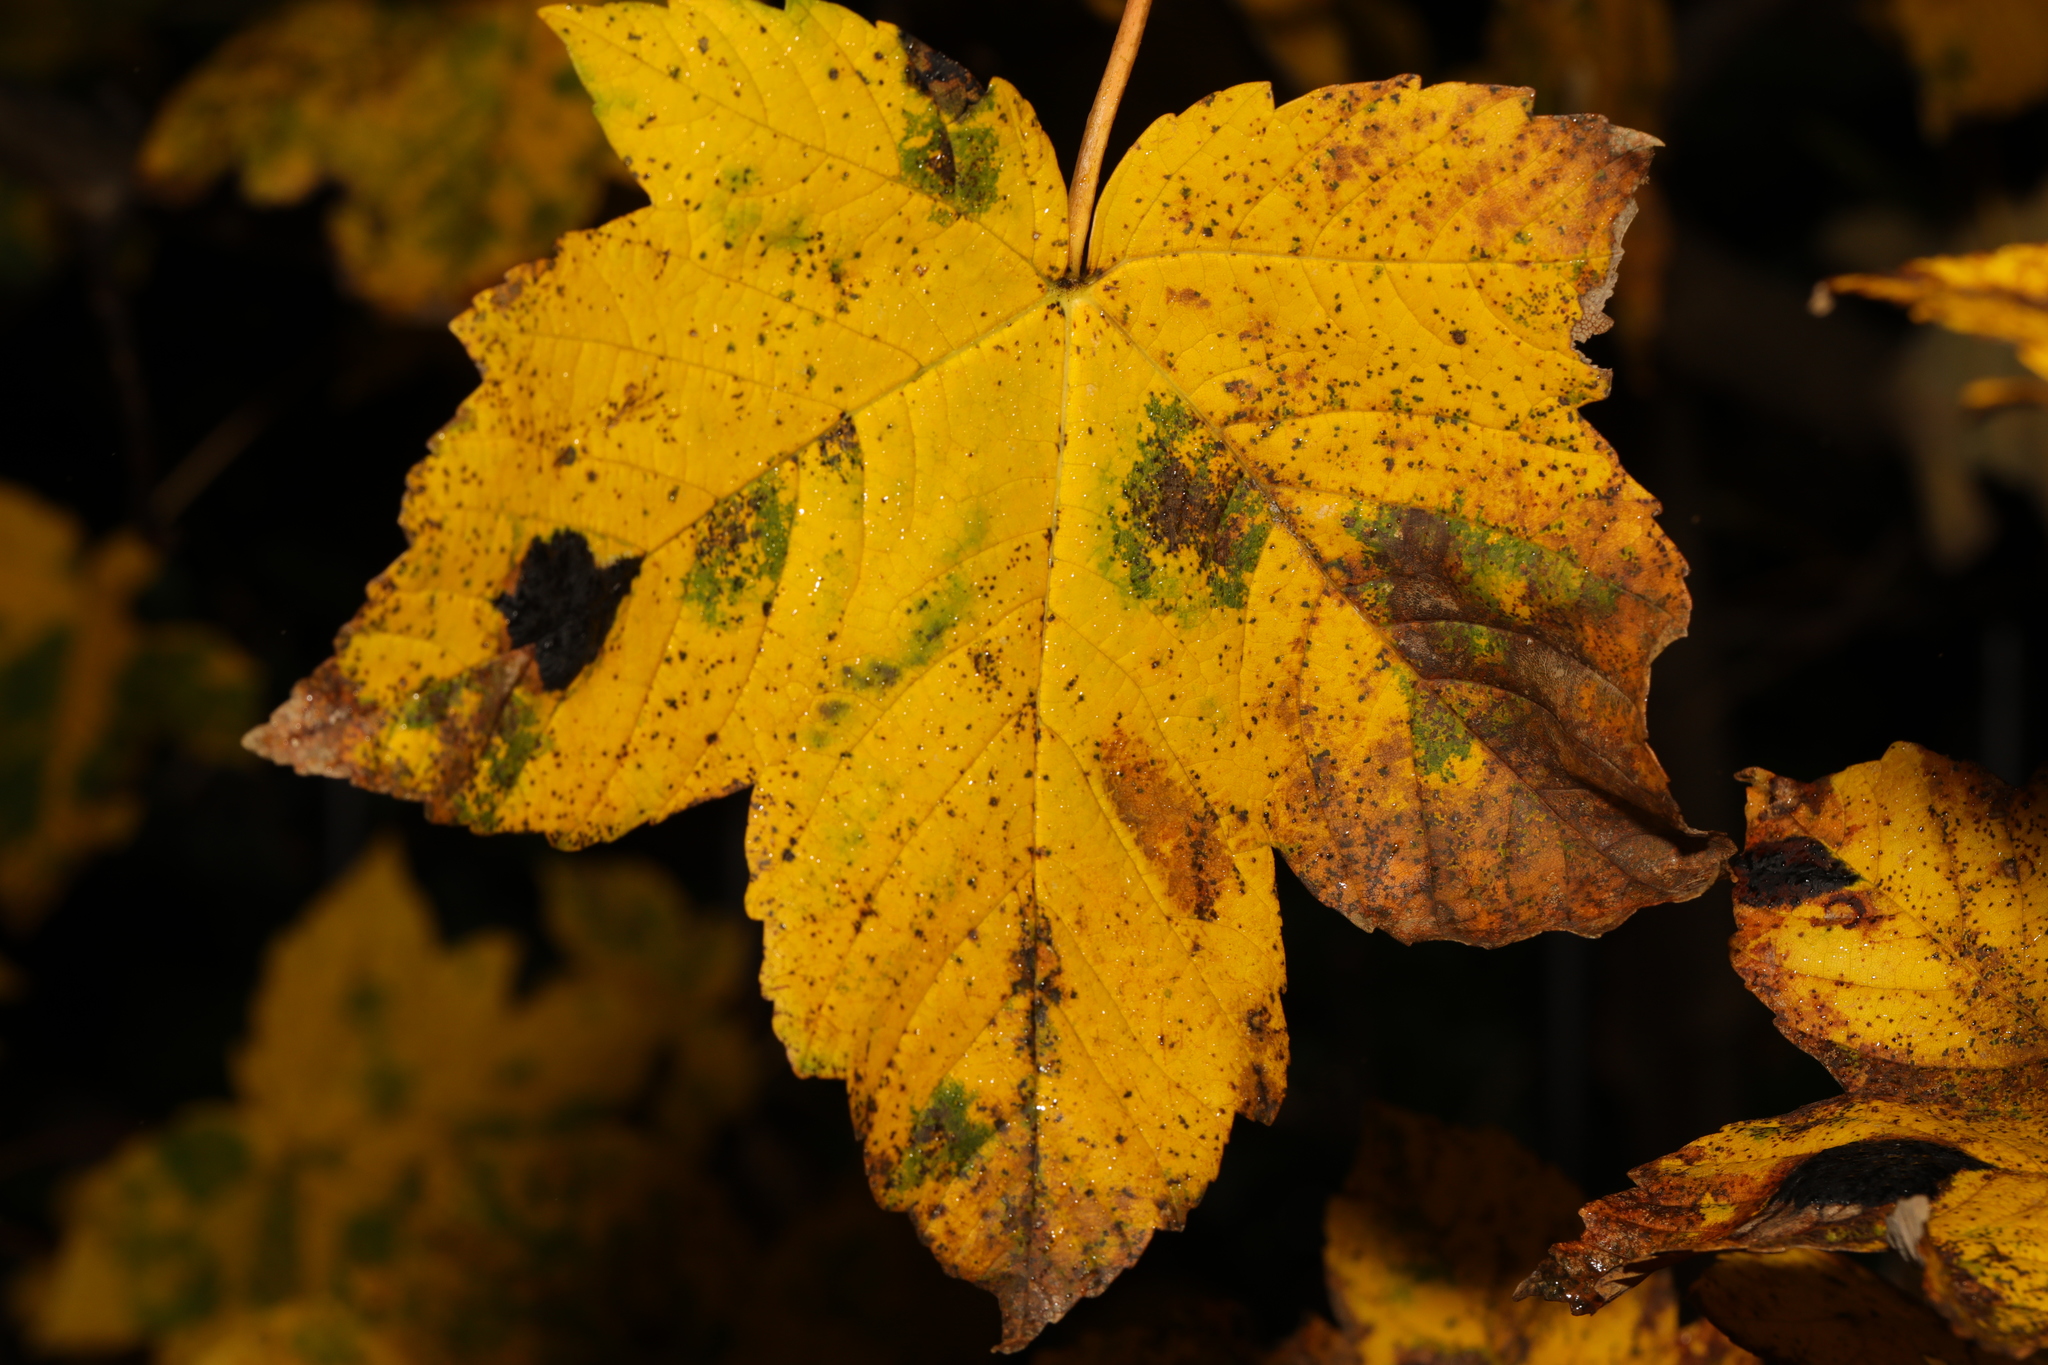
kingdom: Plantae
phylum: Tracheophyta
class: Magnoliopsida
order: Sapindales
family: Sapindaceae
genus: Acer
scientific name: Acer pseudoplatanus
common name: Sycamore
